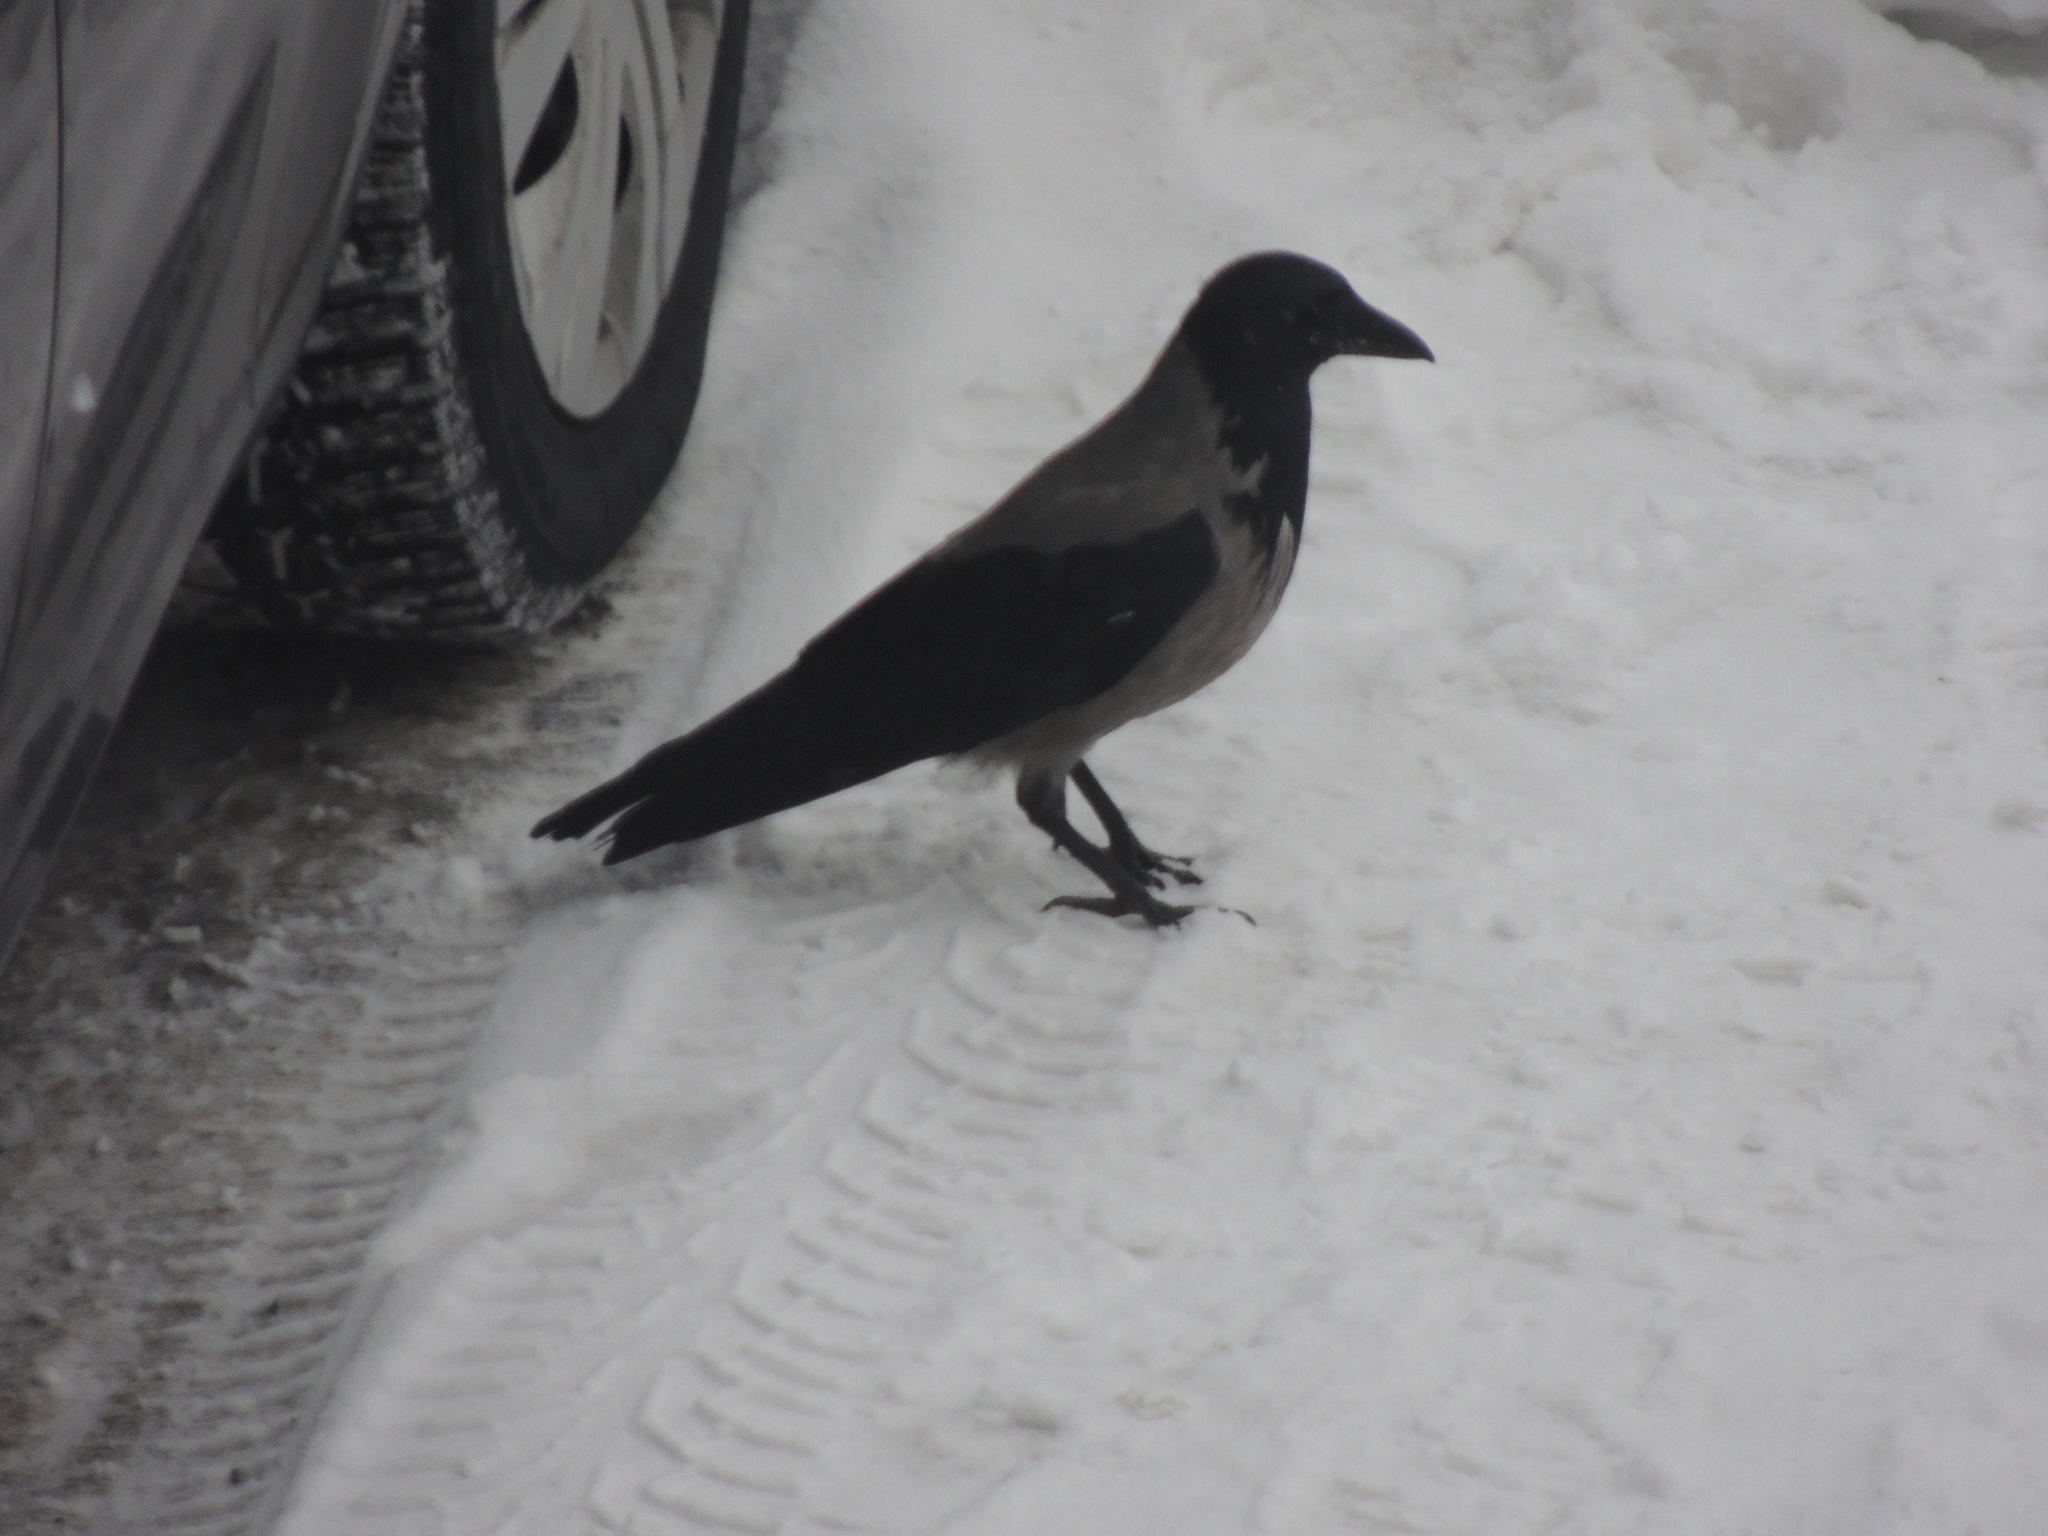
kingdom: Animalia
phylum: Chordata
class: Aves
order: Passeriformes
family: Corvidae
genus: Corvus
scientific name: Corvus cornix
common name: Hooded crow
